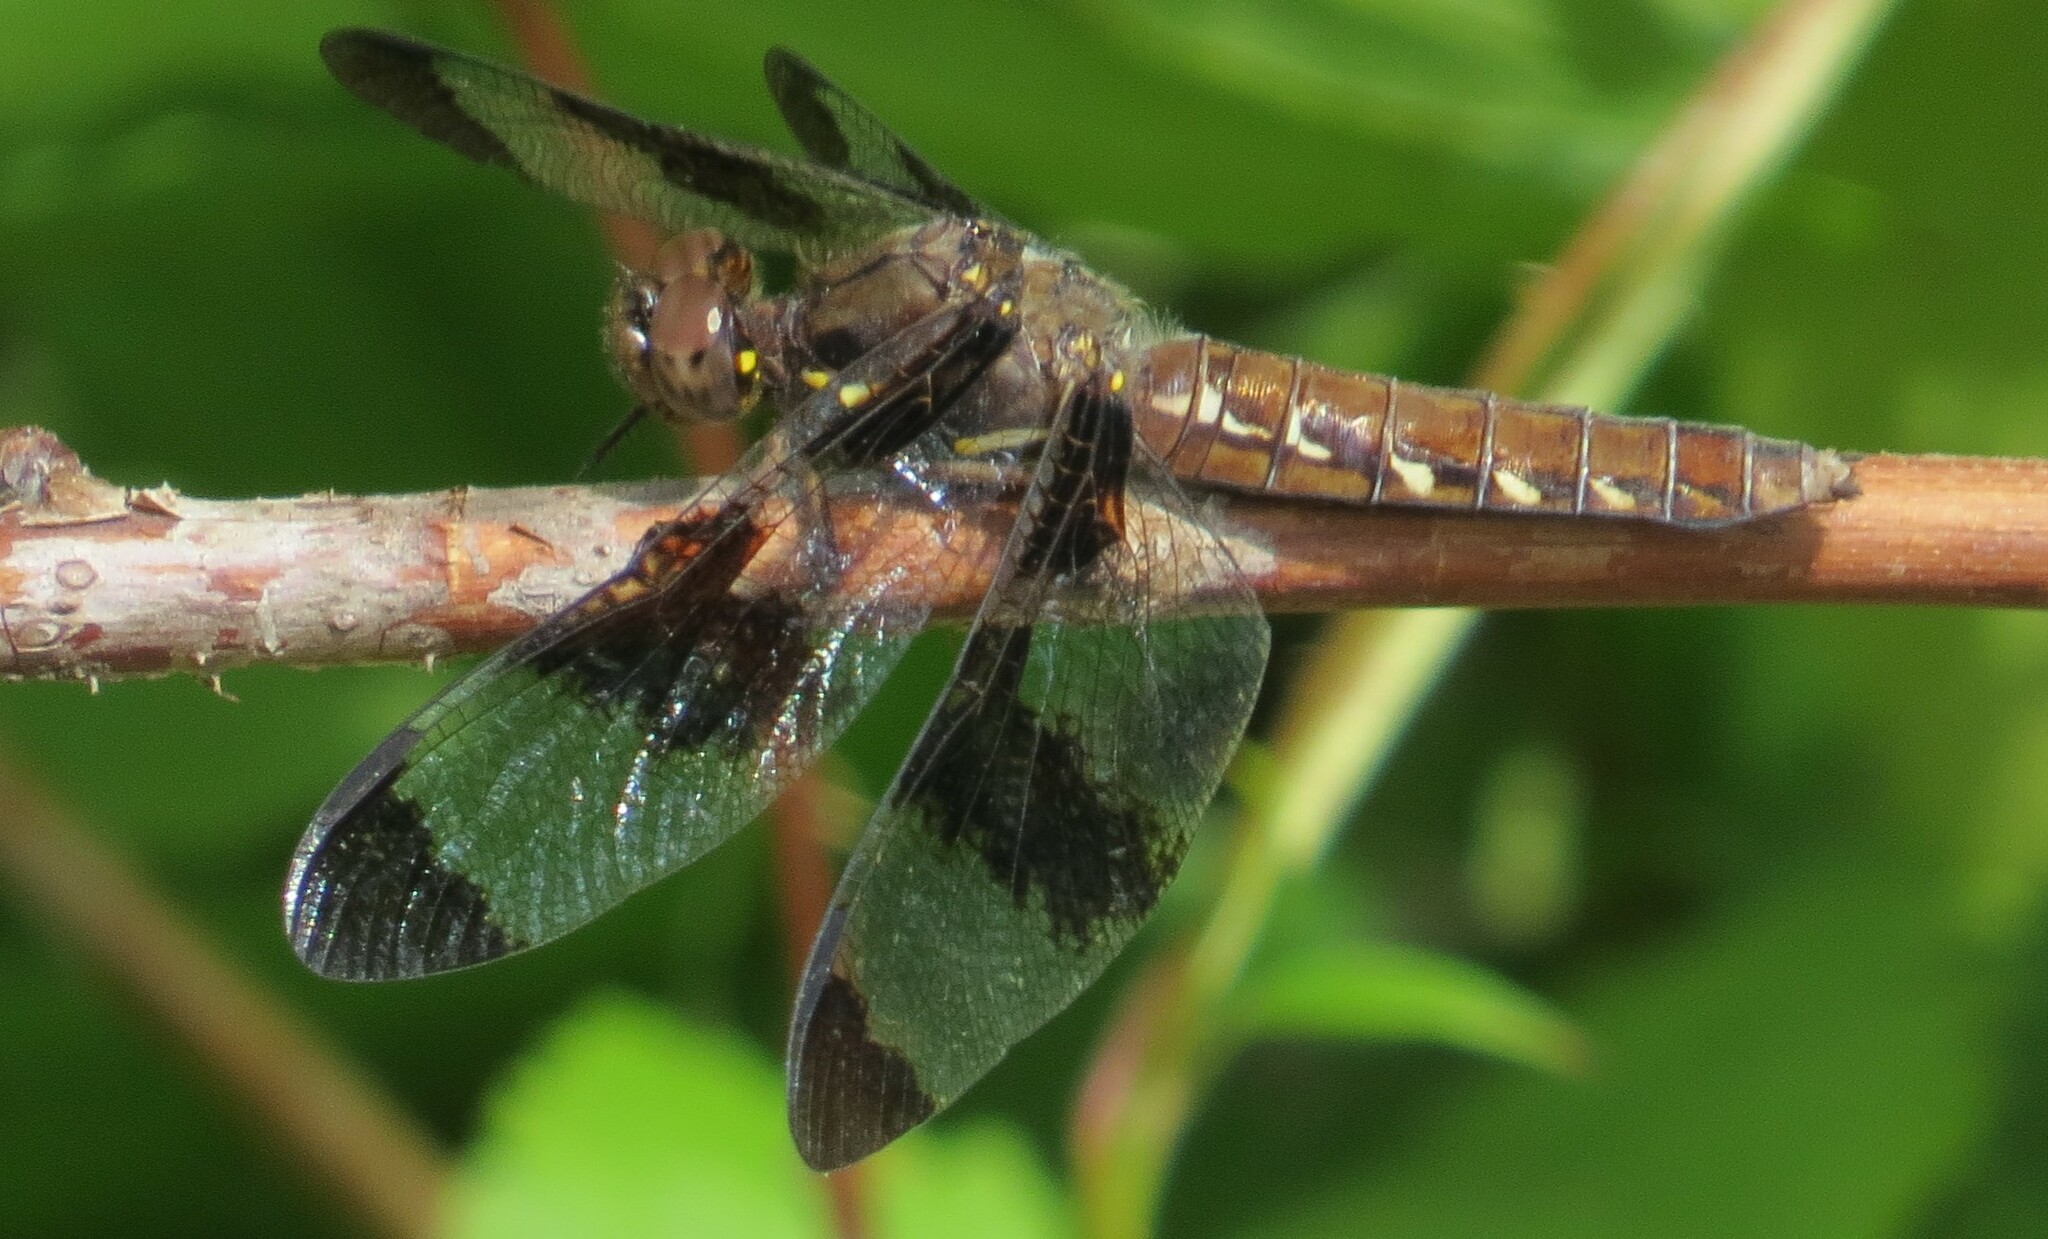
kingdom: Animalia
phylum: Arthropoda
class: Insecta
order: Odonata
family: Libellulidae
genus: Plathemis
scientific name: Plathemis lydia
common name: Common whitetail
